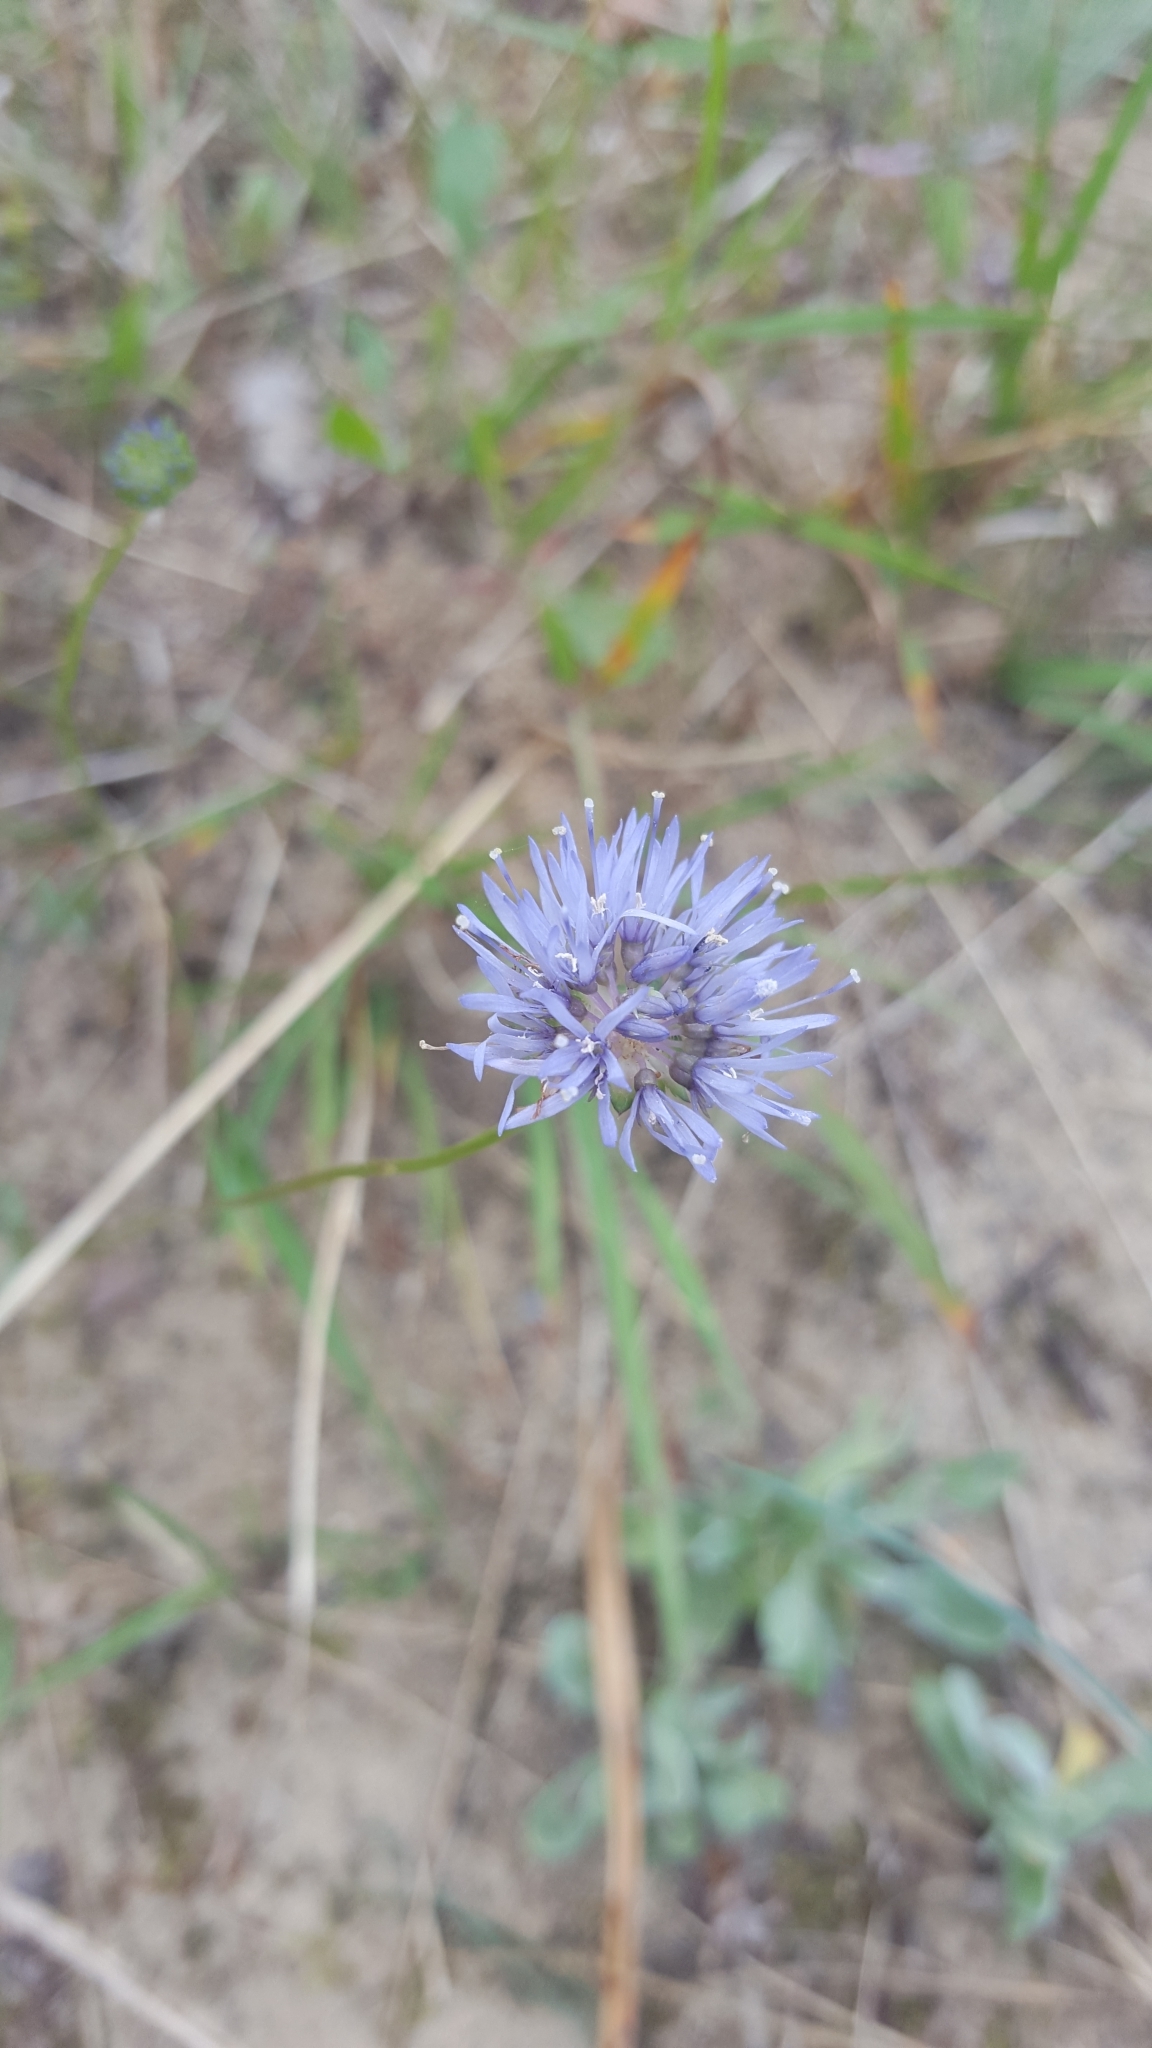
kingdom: Plantae
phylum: Tracheophyta
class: Magnoliopsida
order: Asterales
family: Campanulaceae
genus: Jasione
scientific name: Jasione montana
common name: Sheep's-bit
